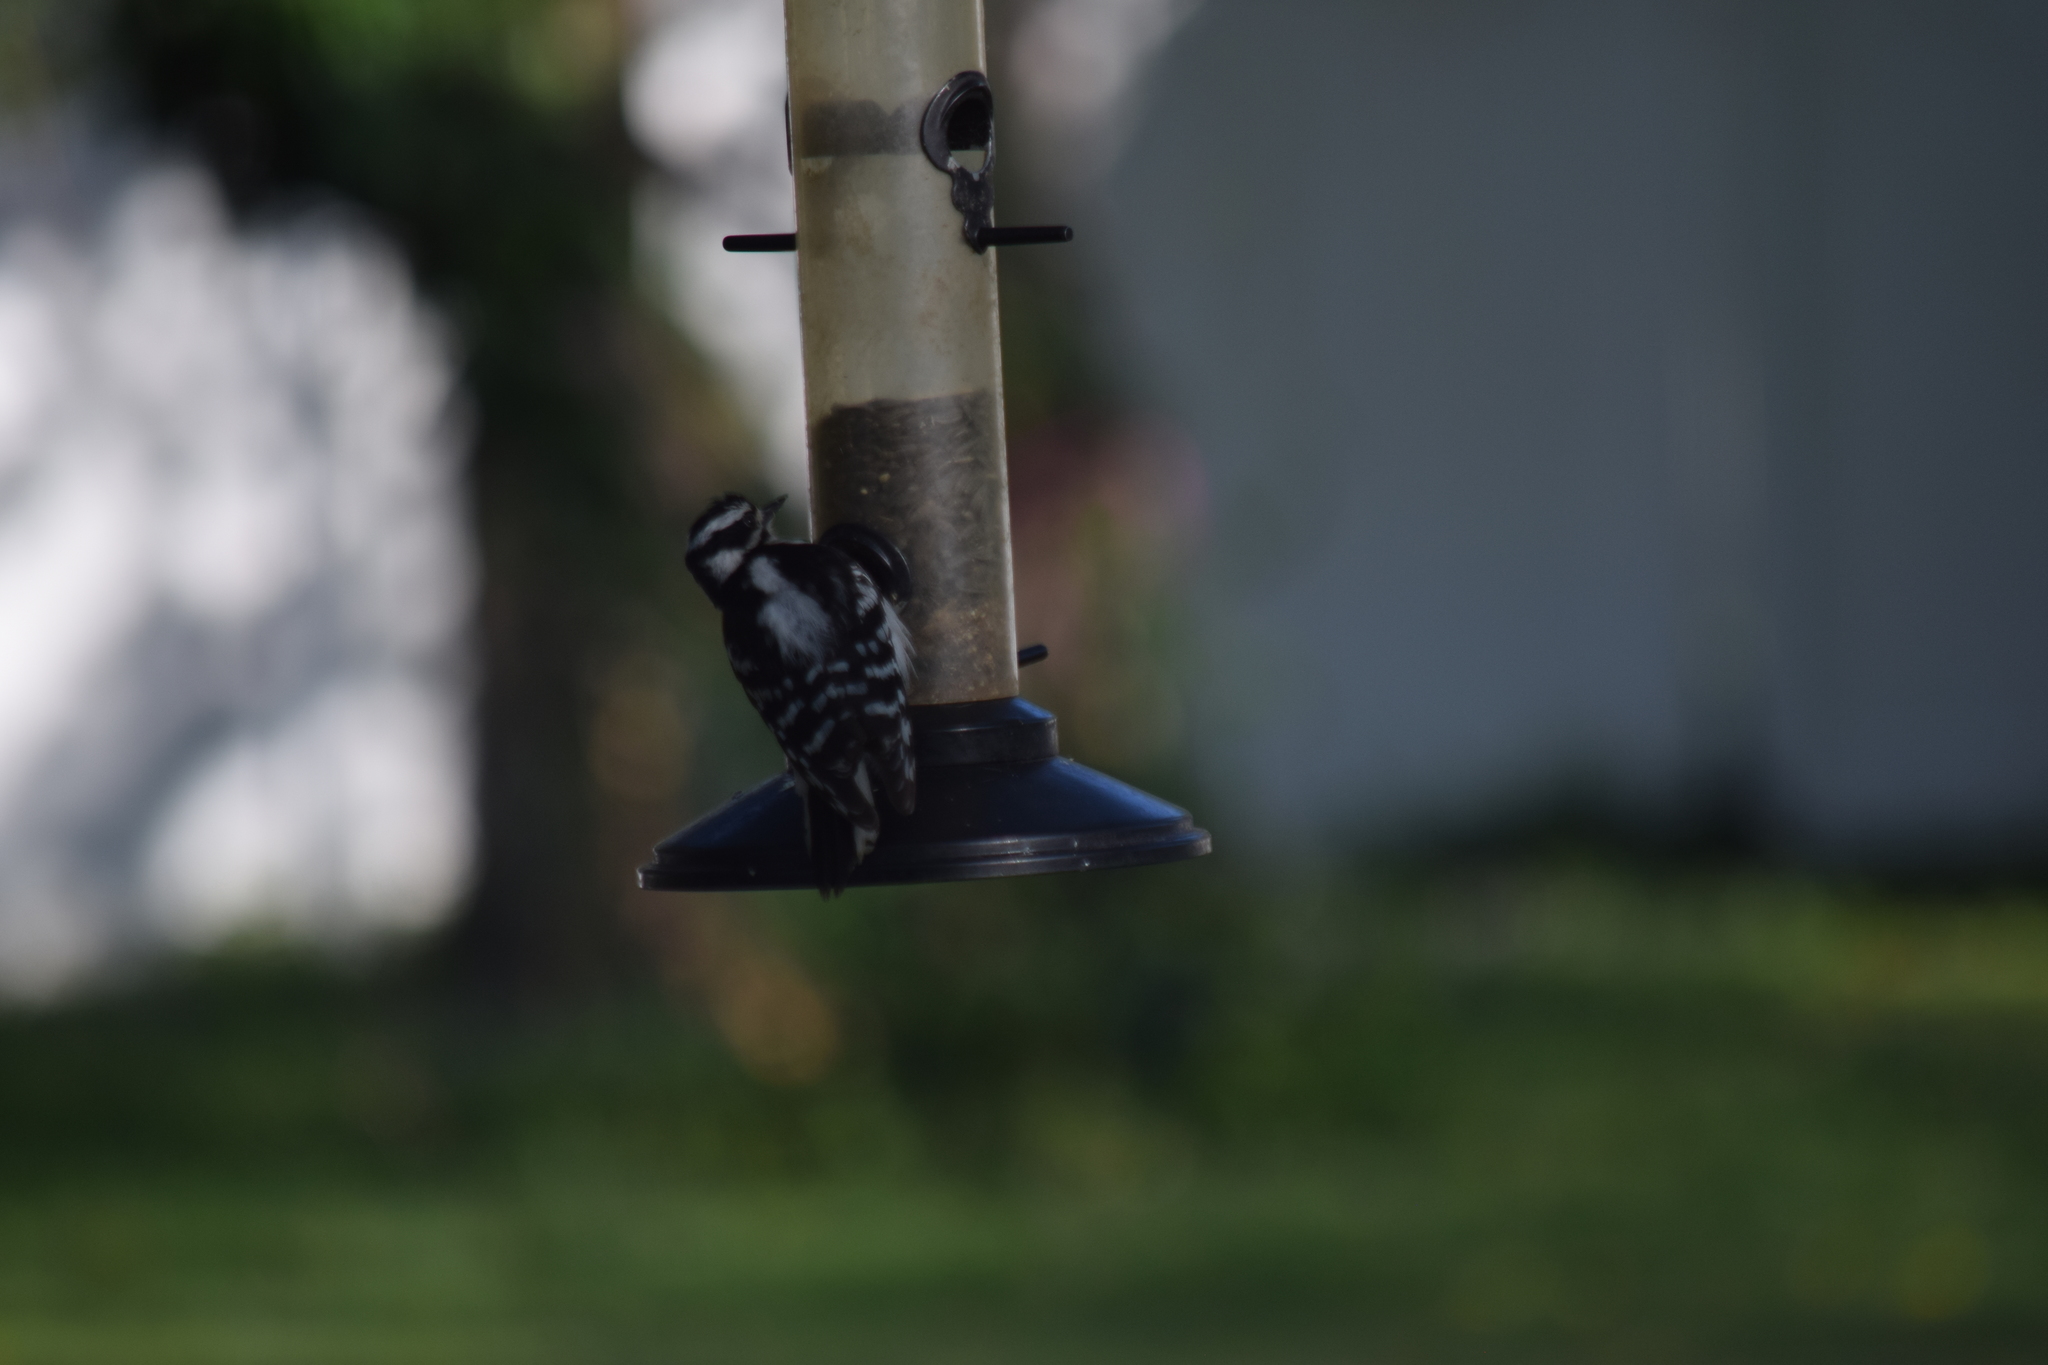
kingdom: Animalia
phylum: Chordata
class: Aves
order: Piciformes
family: Picidae
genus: Dryobates
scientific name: Dryobates pubescens
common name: Downy woodpecker
